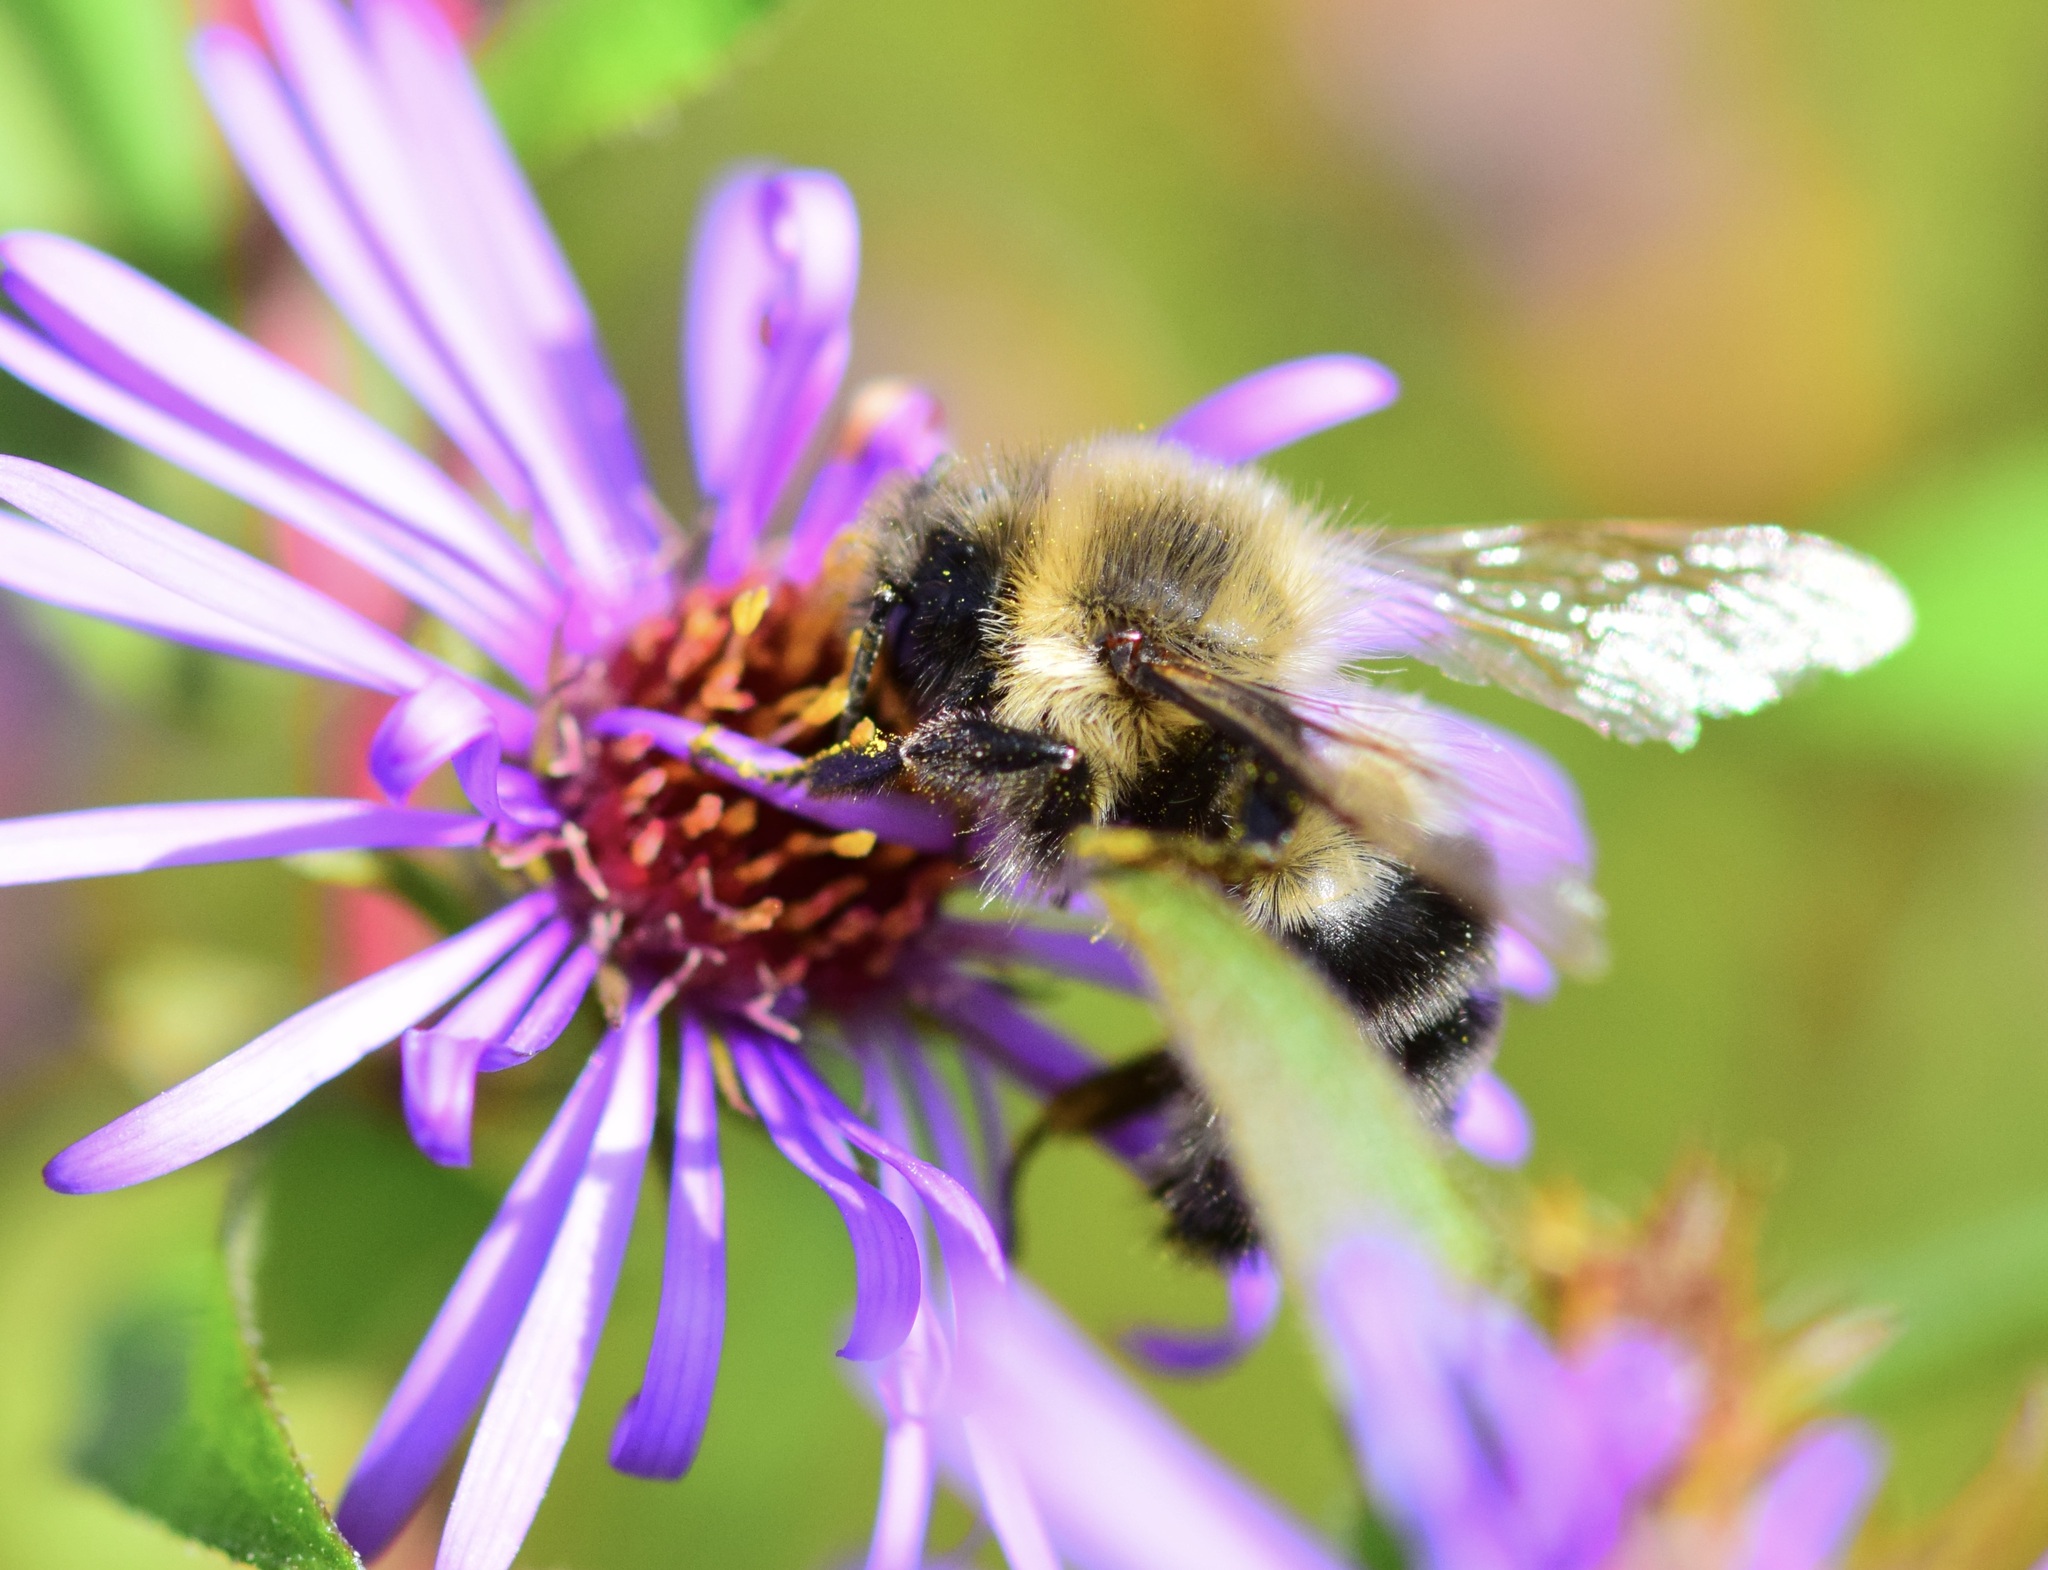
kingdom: Animalia
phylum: Arthropoda
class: Insecta
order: Hymenoptera
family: Apidae
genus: Bombus
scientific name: Bombus impatiens
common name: Common eastern bumble bee
